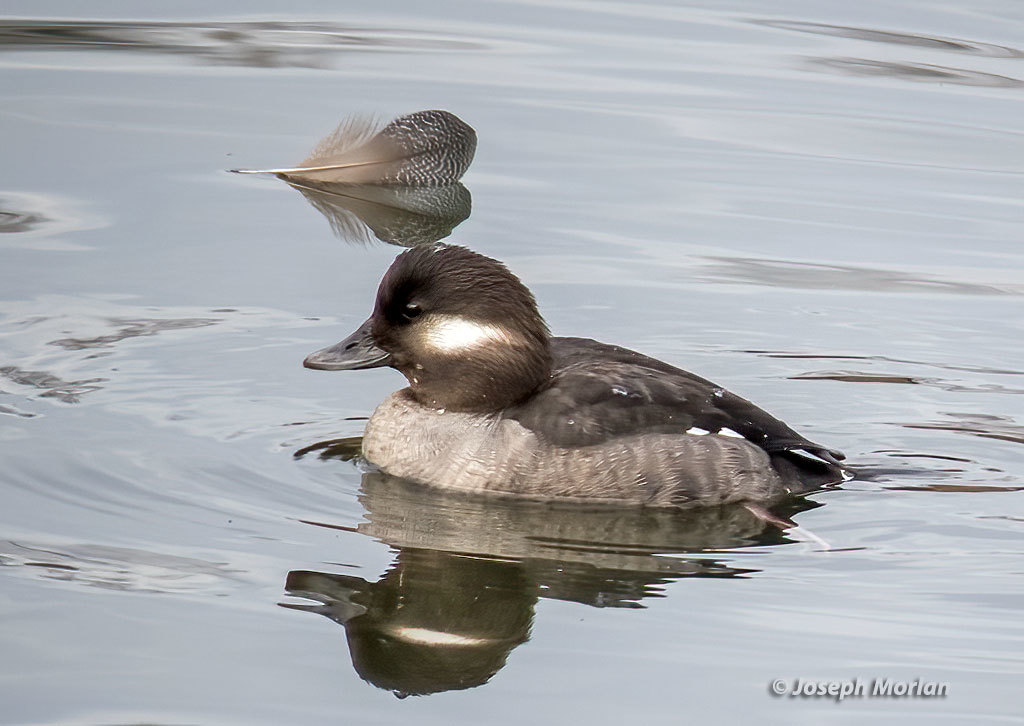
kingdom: Animalia
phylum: Chordata
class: Aves
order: Anseriformes
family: Anatidae
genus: Bucephala
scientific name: Bucephala albeola
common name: Bufflehead
